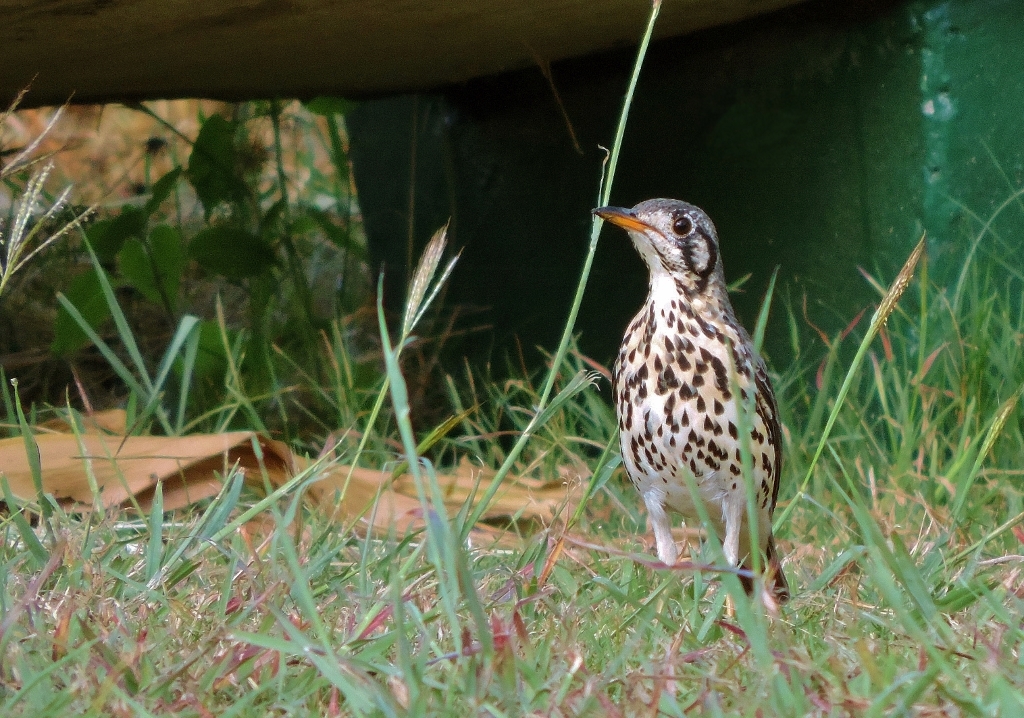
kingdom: Animalia
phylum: Chordata
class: Aves
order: Passeriformes
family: Turdidae
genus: Psophocichla
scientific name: Psophocichla litsitsirupa
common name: Groundscraper thrush
